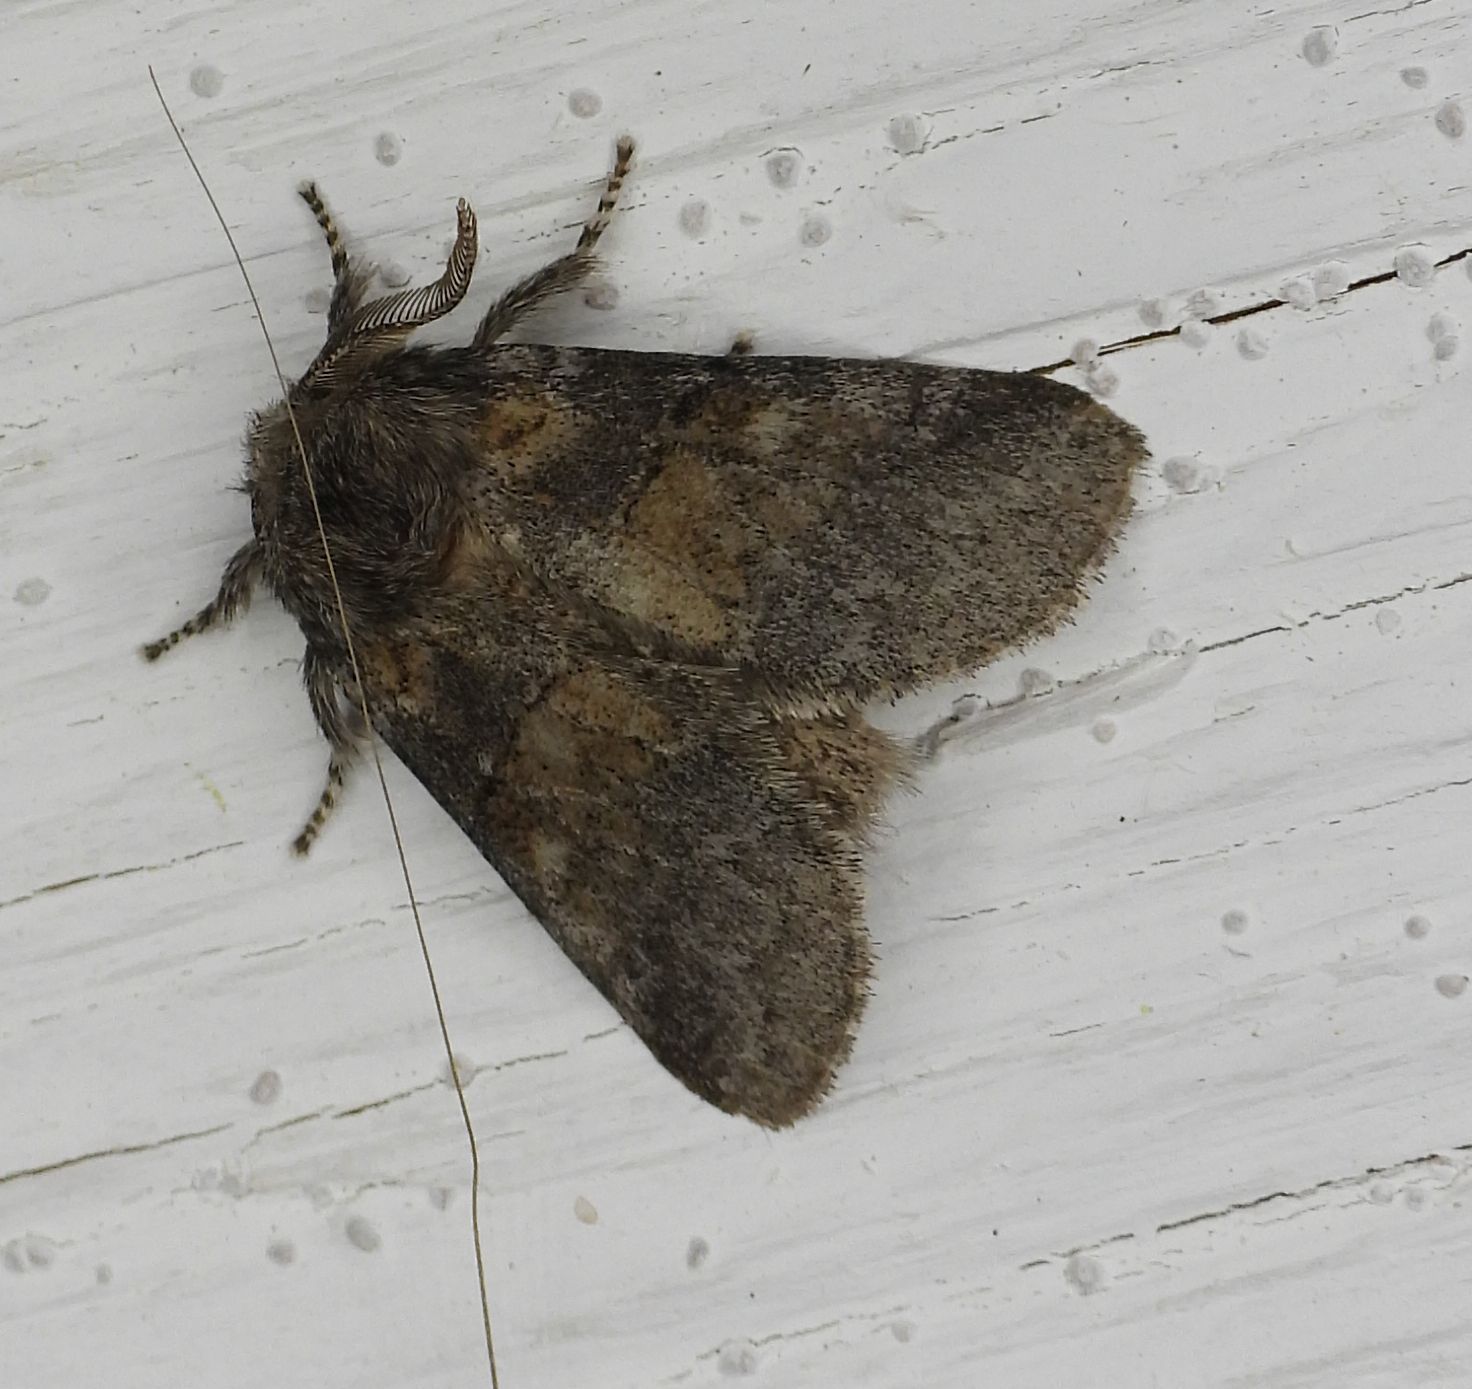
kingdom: Animalia
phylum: Arthropoda
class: Insecta
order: Lepidoptera
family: Notodontidae
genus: Gluphisia
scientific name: Gluphisia septentrionis
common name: Common gluphisia
